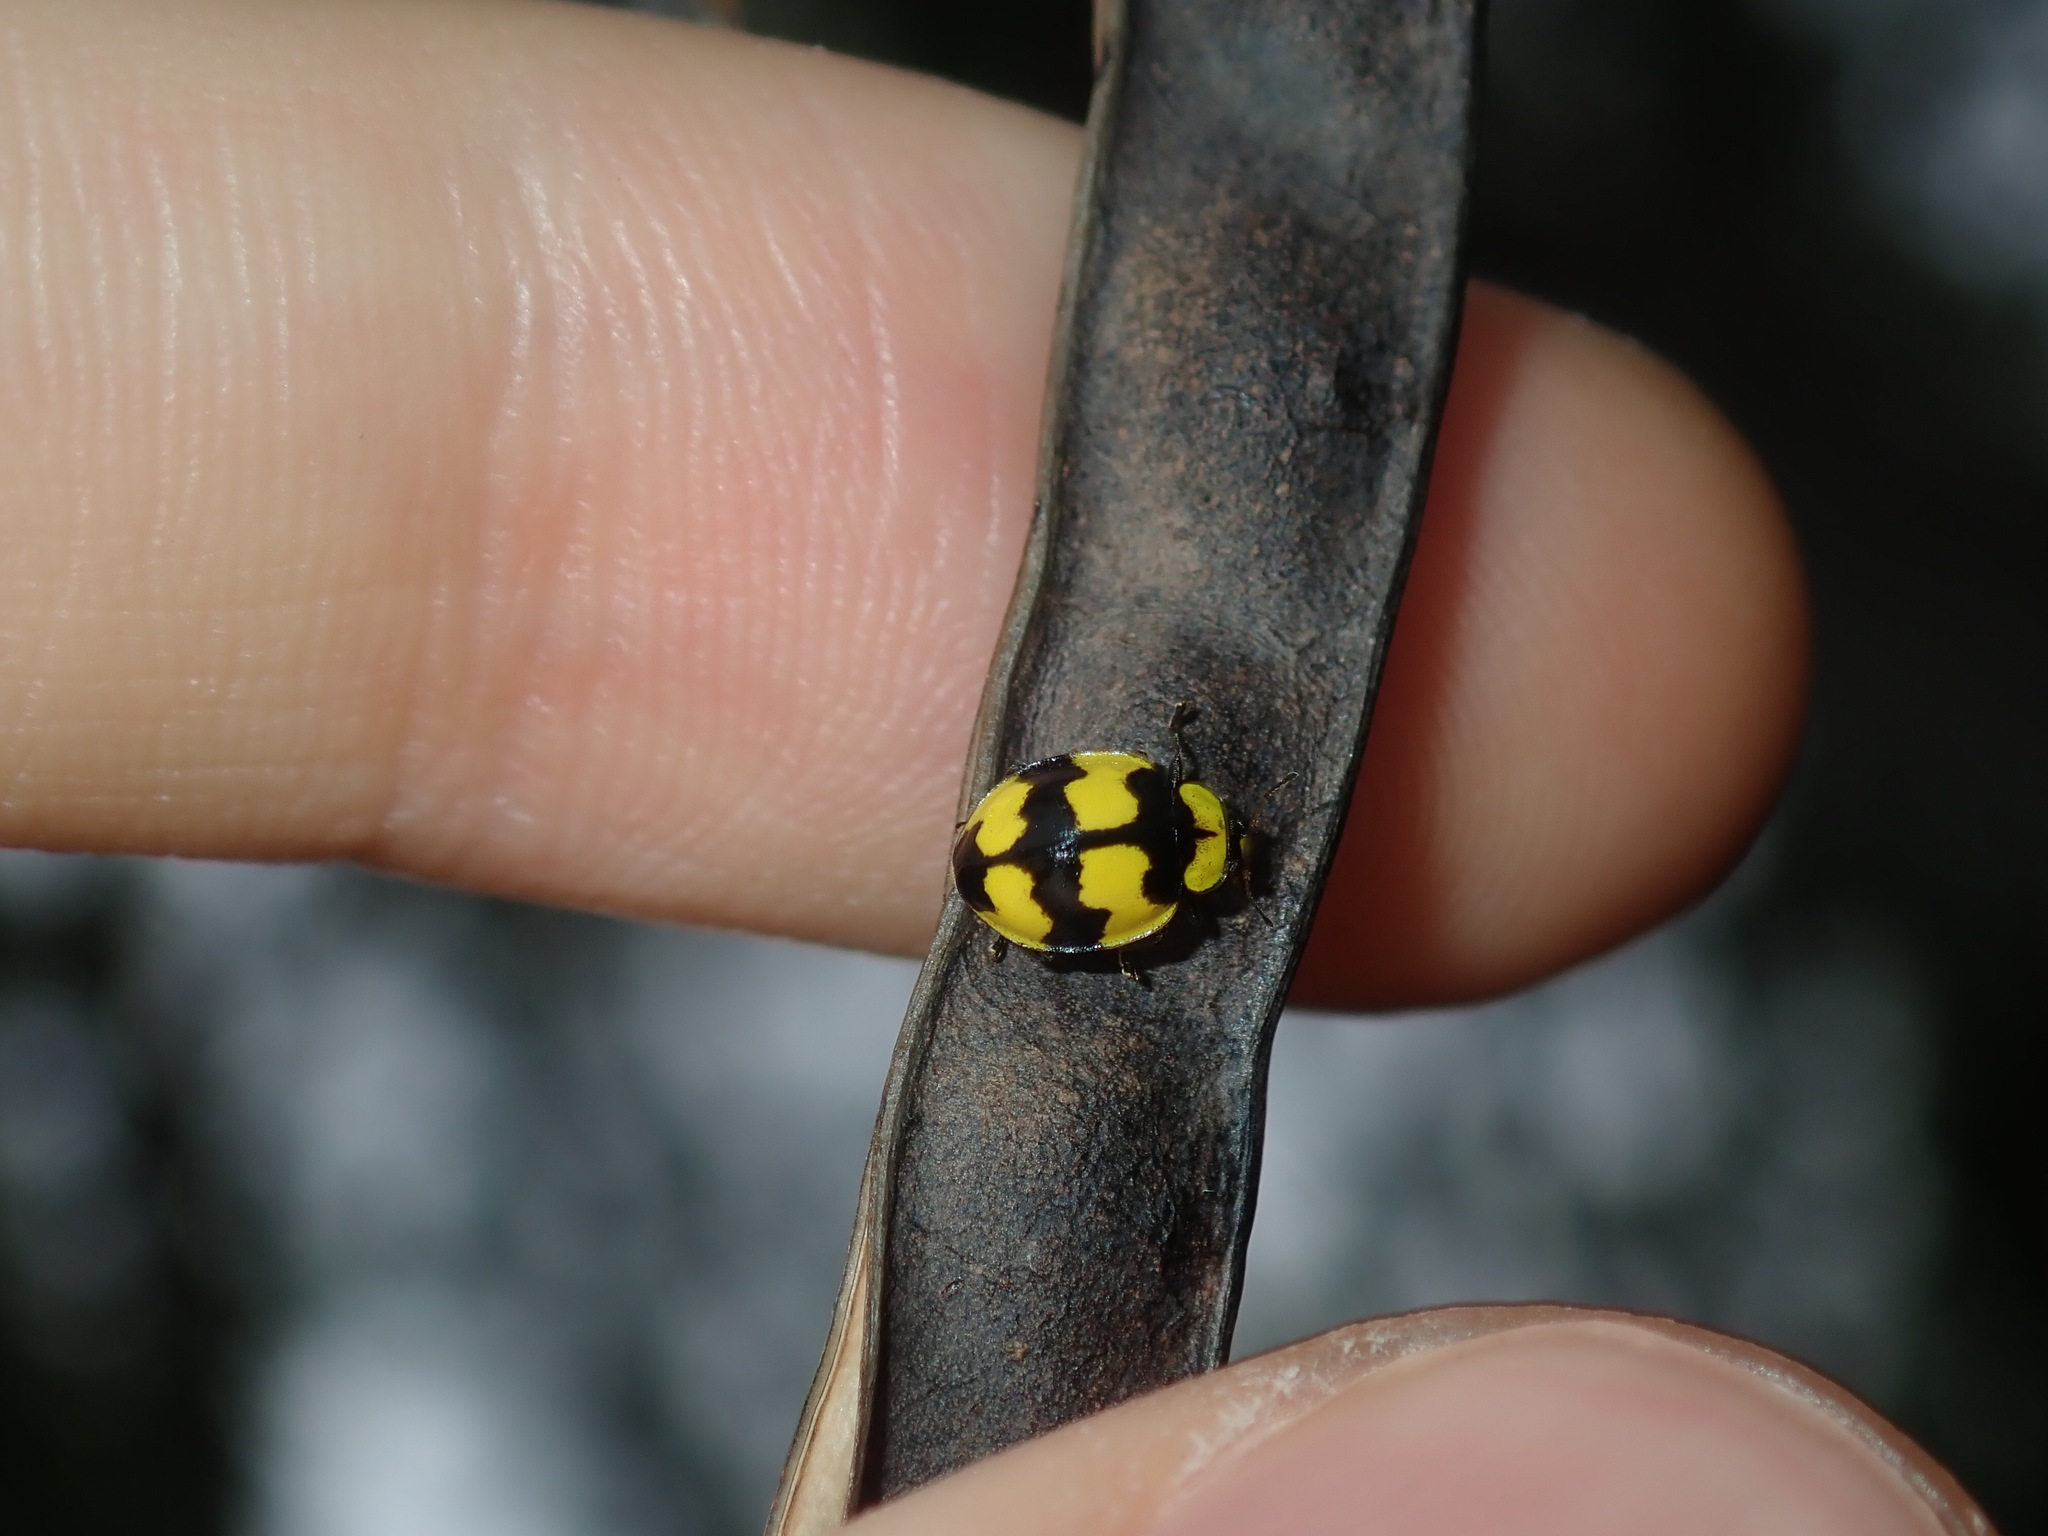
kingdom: Animalia
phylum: Arthropoda
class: Insecta
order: Coleoptera
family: Coccinellidae
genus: Illeis
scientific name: Illeis galbula
